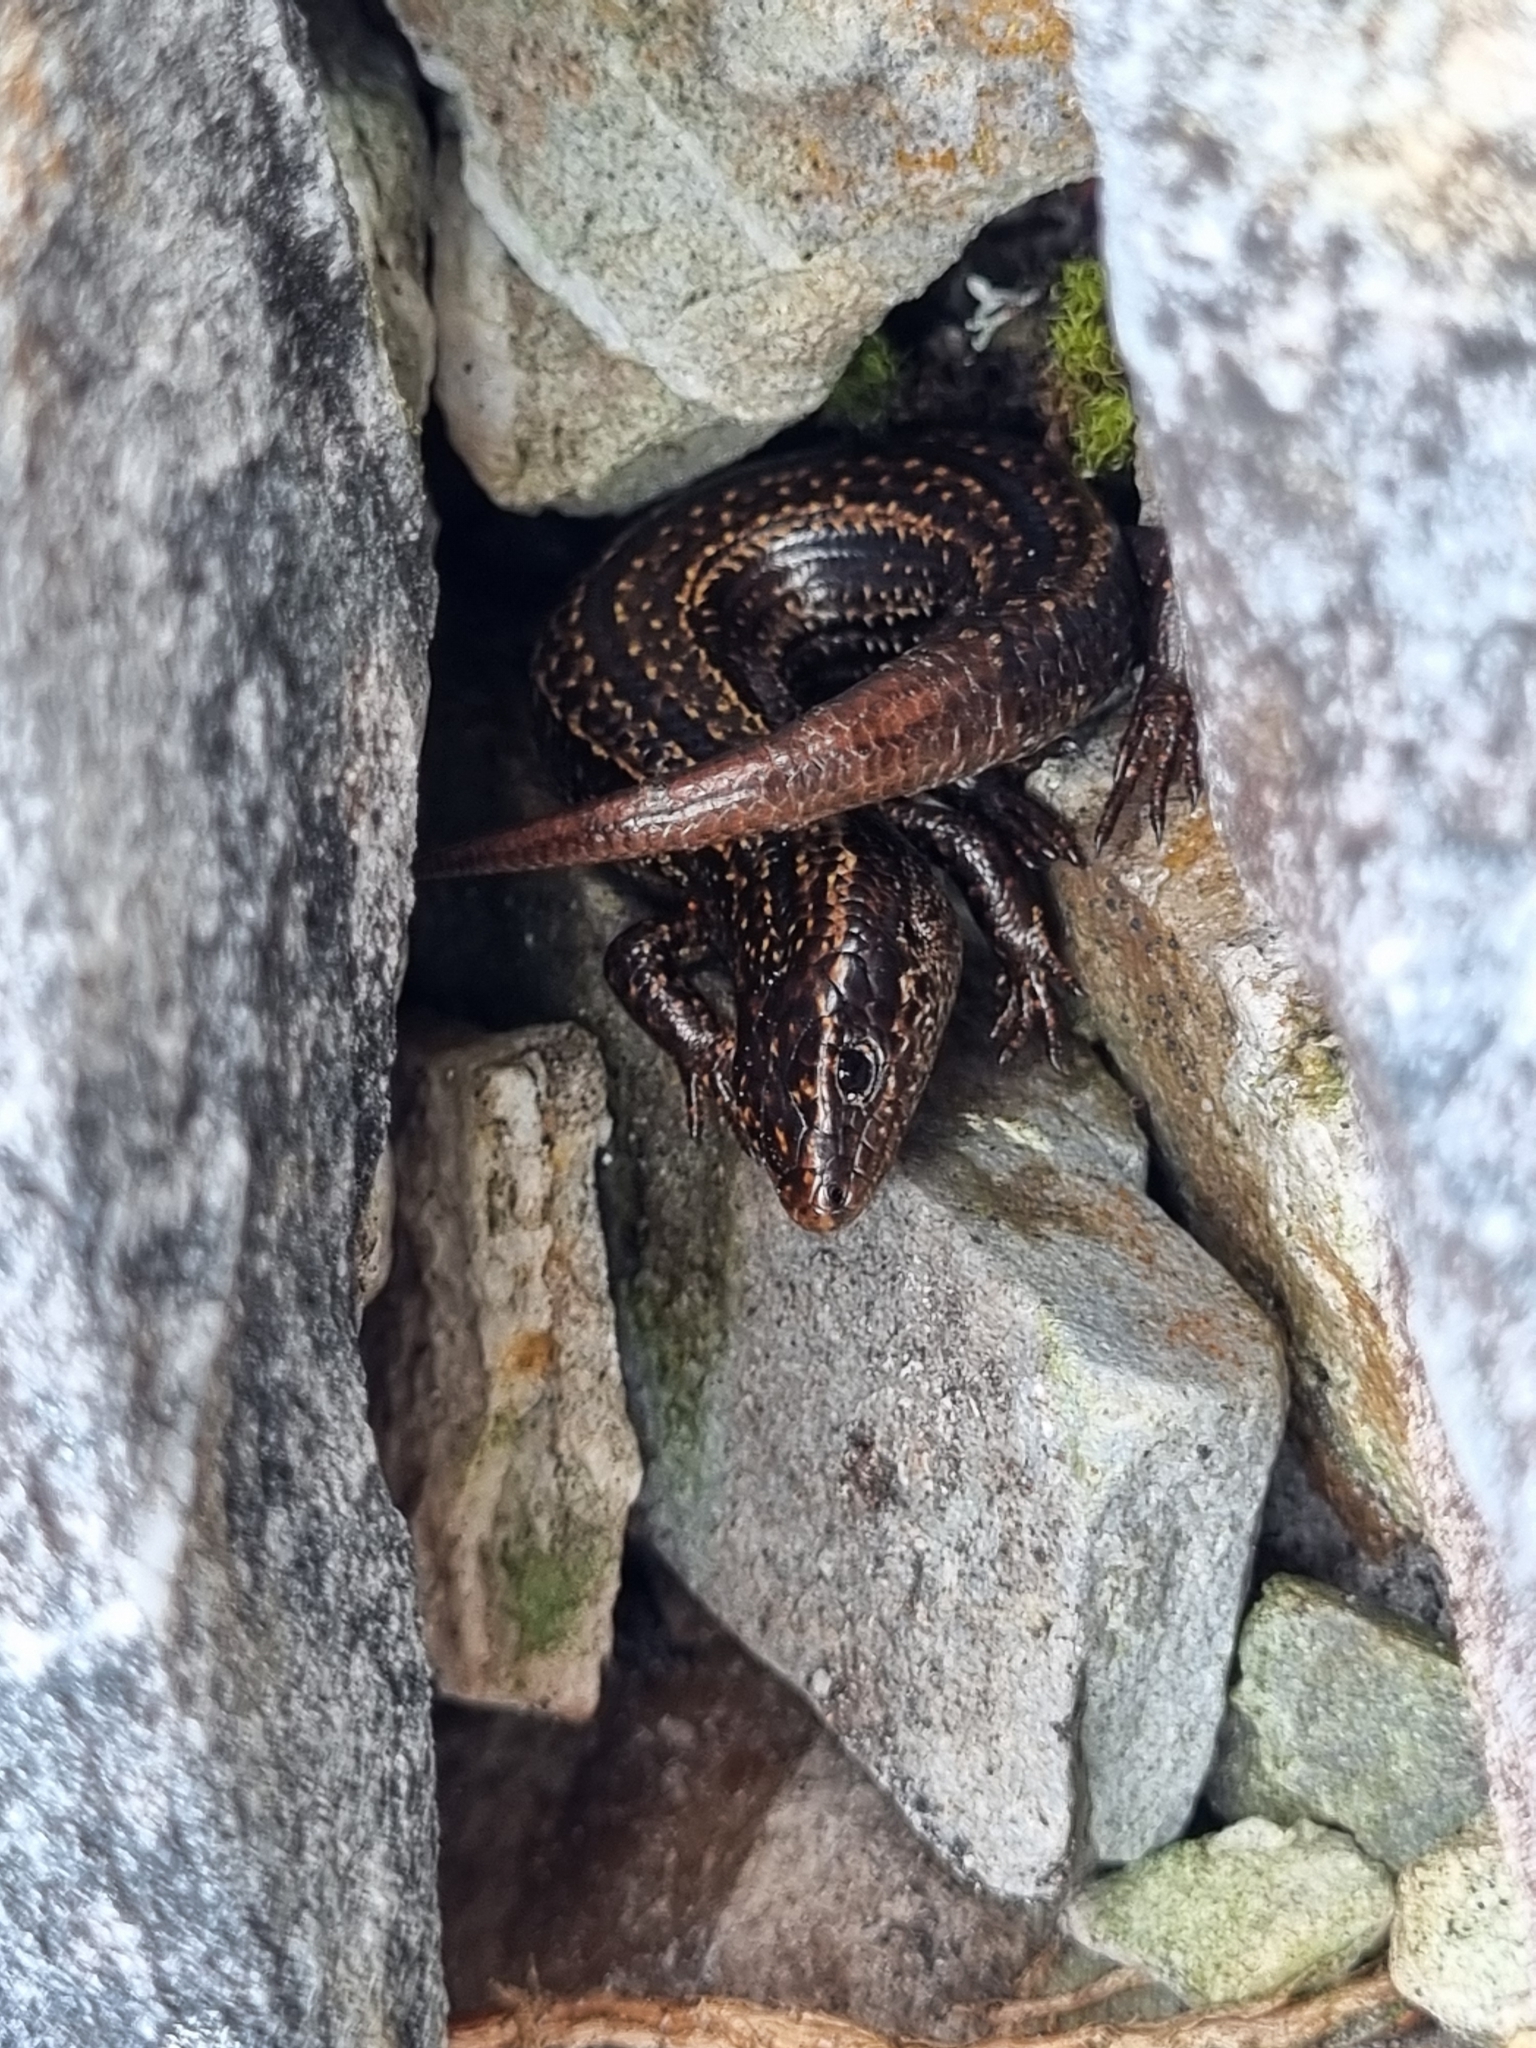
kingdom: Animalia
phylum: Chordata
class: Squamata
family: Scincidae
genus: Oligosoma
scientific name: Oligosoma newmani
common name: Newman’s speckled skink
